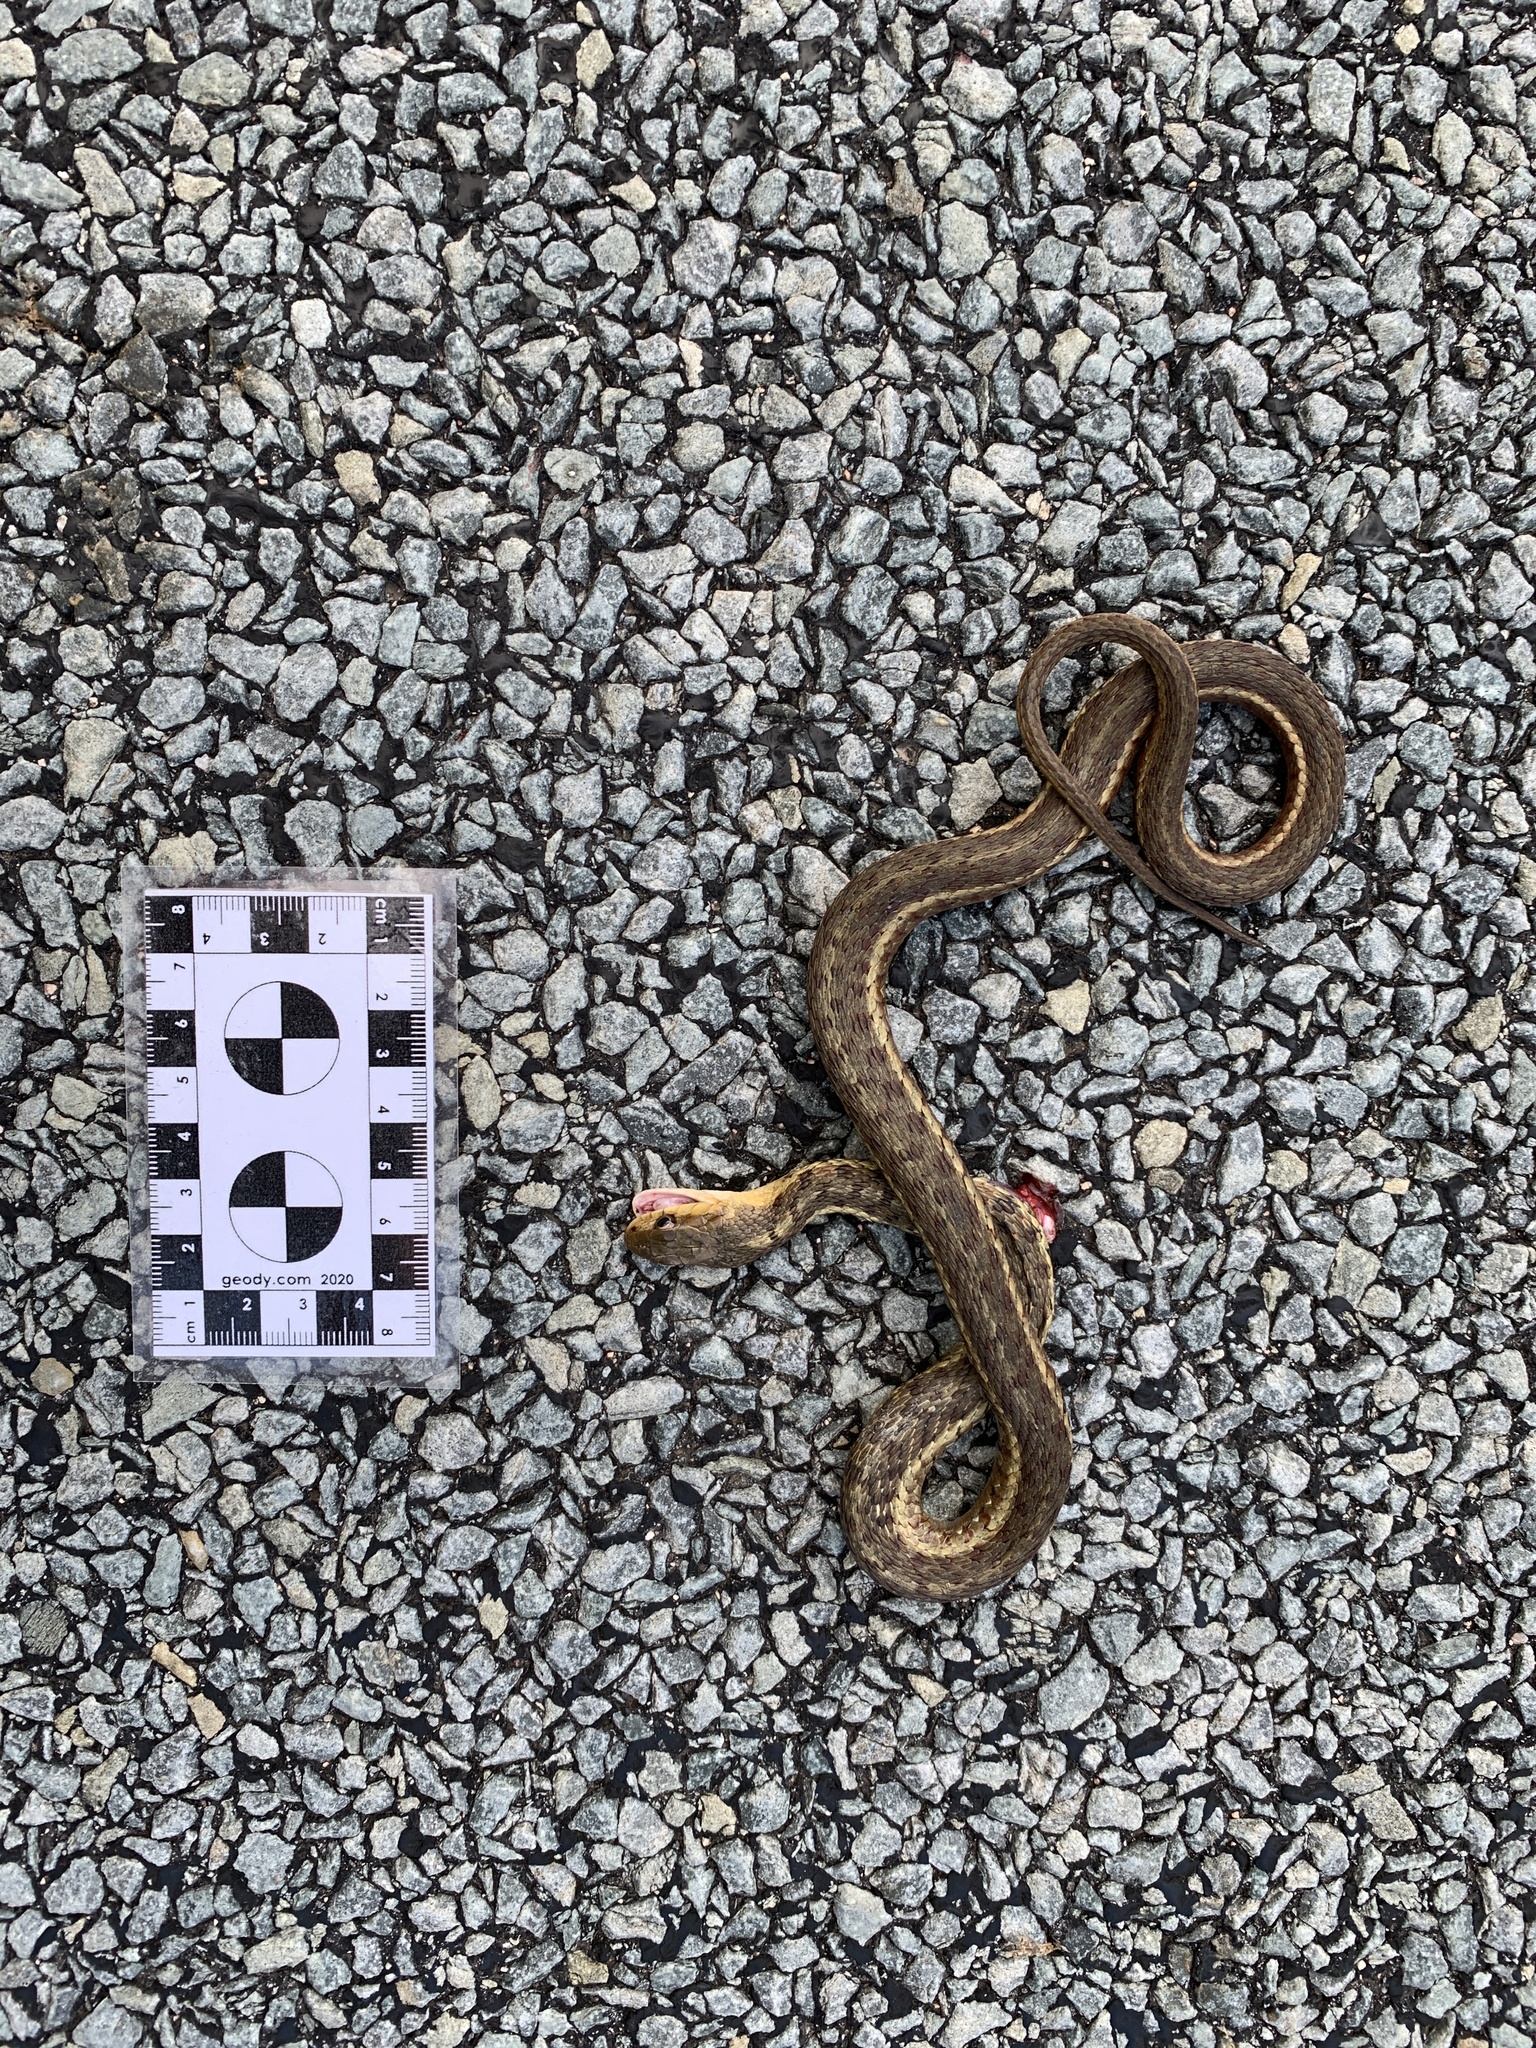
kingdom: Animalia
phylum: Chordata
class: Squamata
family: Colubridae
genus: Thamnophis
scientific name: Thamnophis sirtalis
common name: Common garter snake
